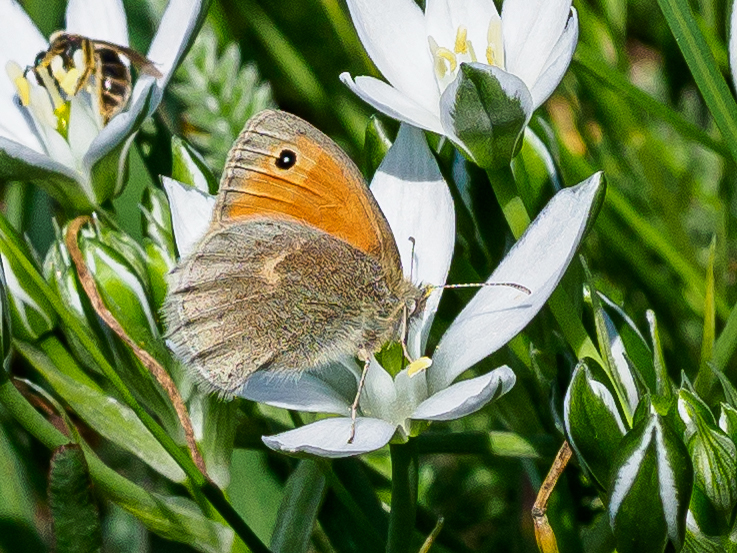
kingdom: Animalia
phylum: Arthropoda
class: Insecta
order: Lepidoptera
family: Nymphalidae
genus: Coenonympha
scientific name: Coenonympha pamphilus
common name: Small heath
